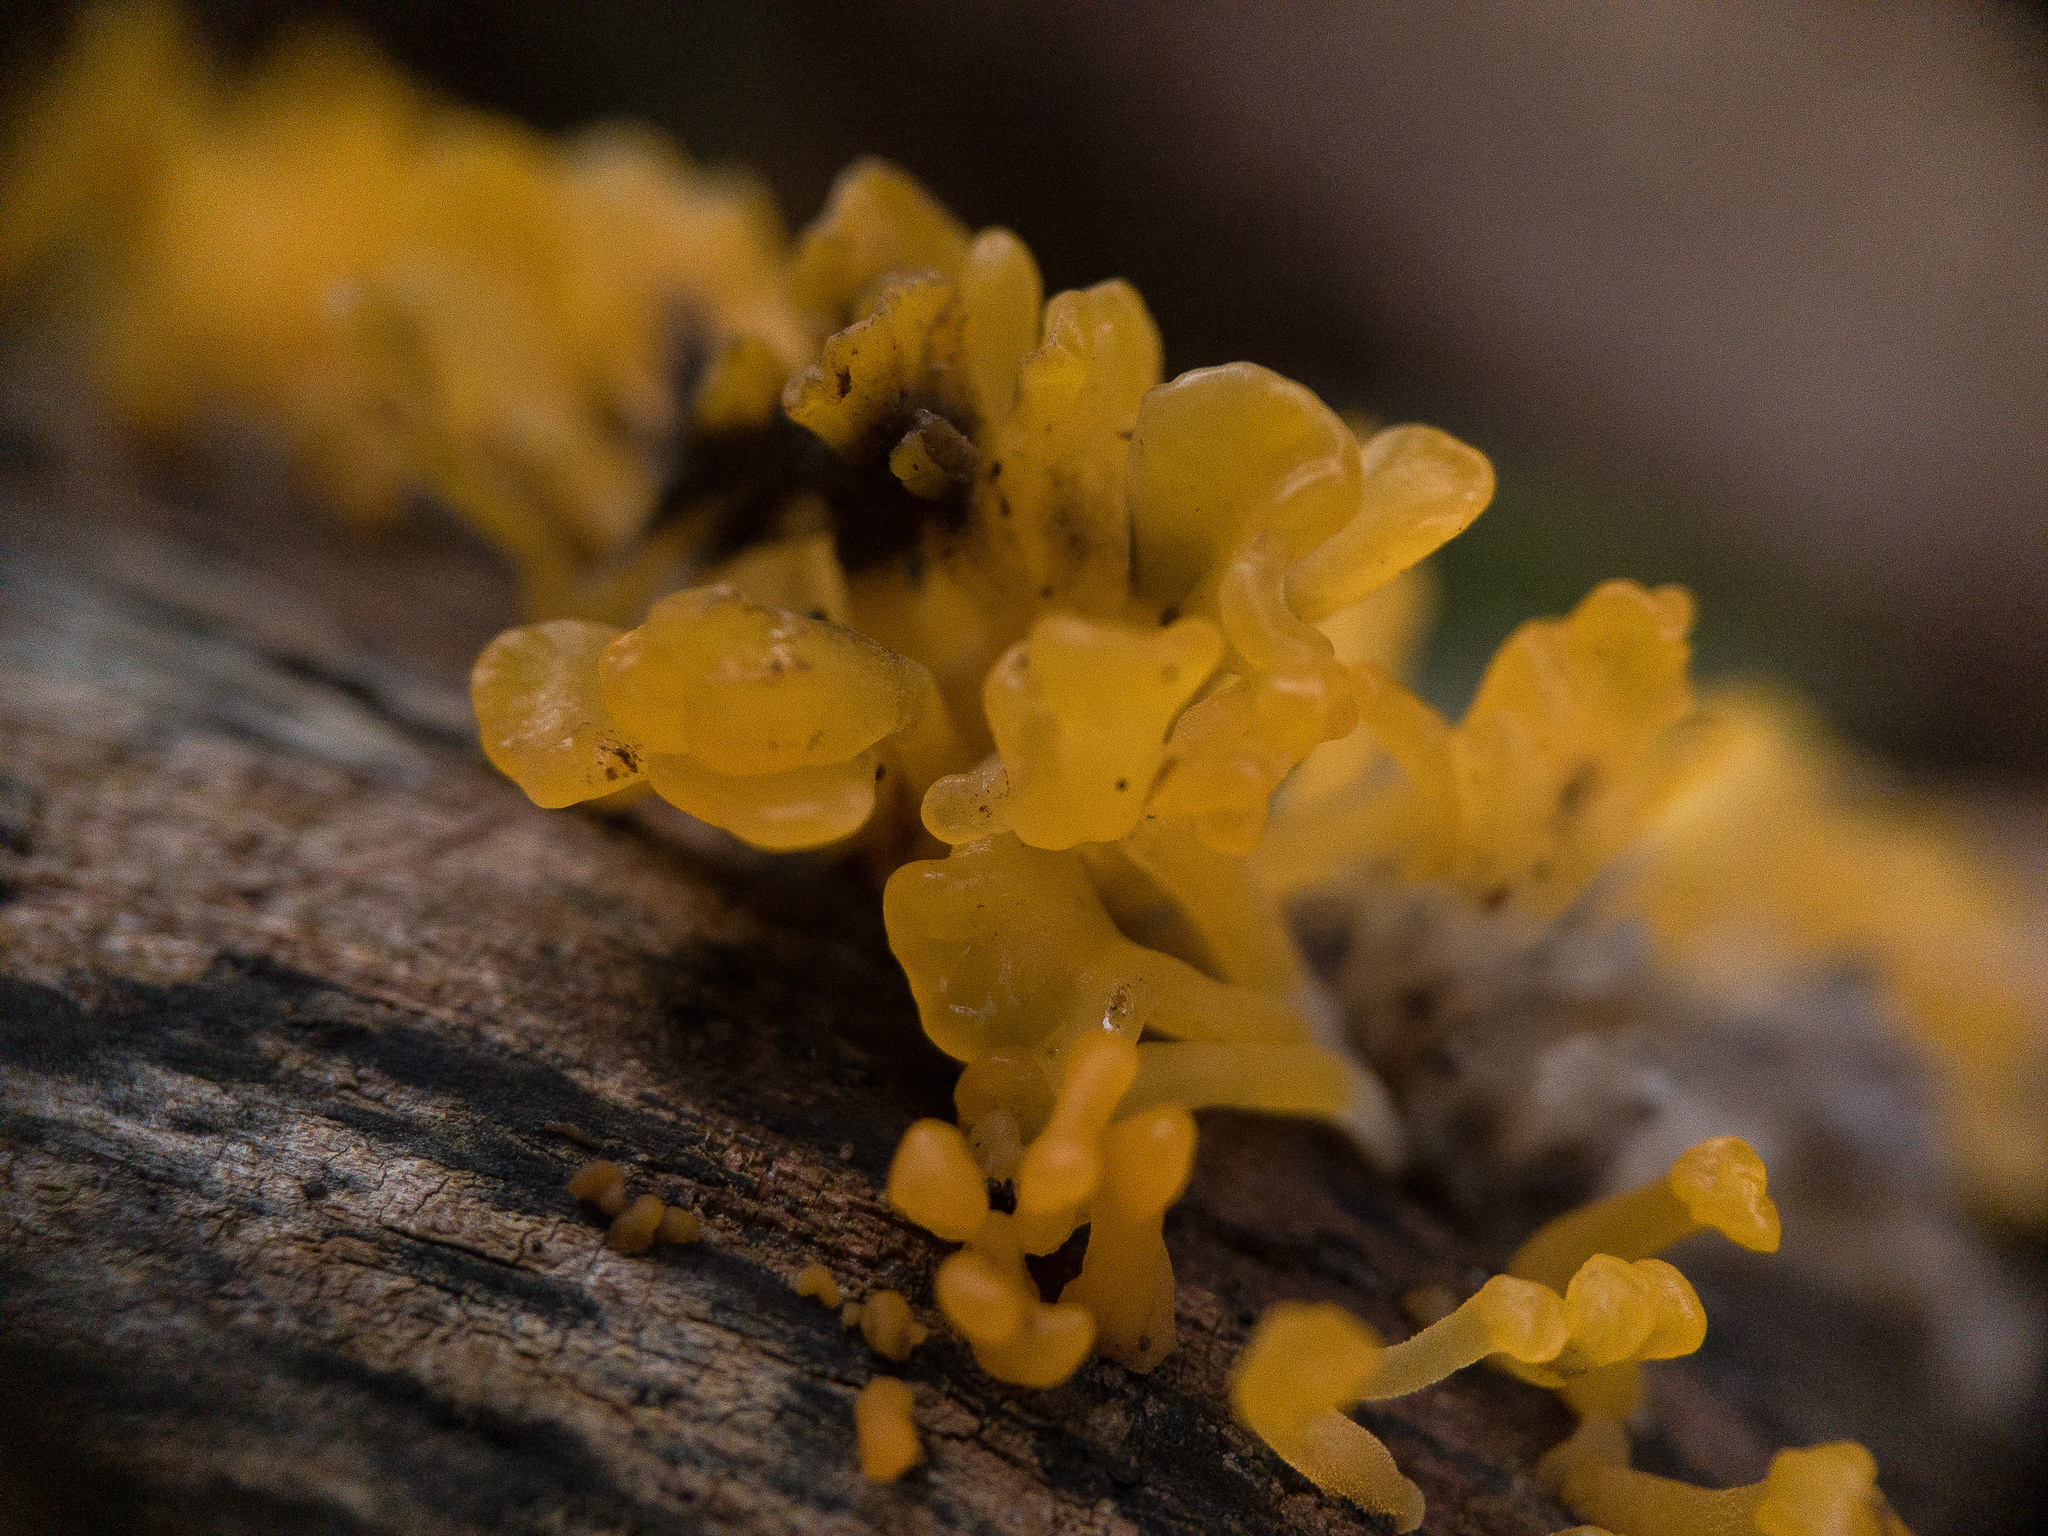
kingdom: Fungi
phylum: Basidiomycota
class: Dacrymycetes
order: Dacrymycetales
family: Dacrymycetaceae
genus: Dacrymyces
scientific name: Dacrymyces spathularius
